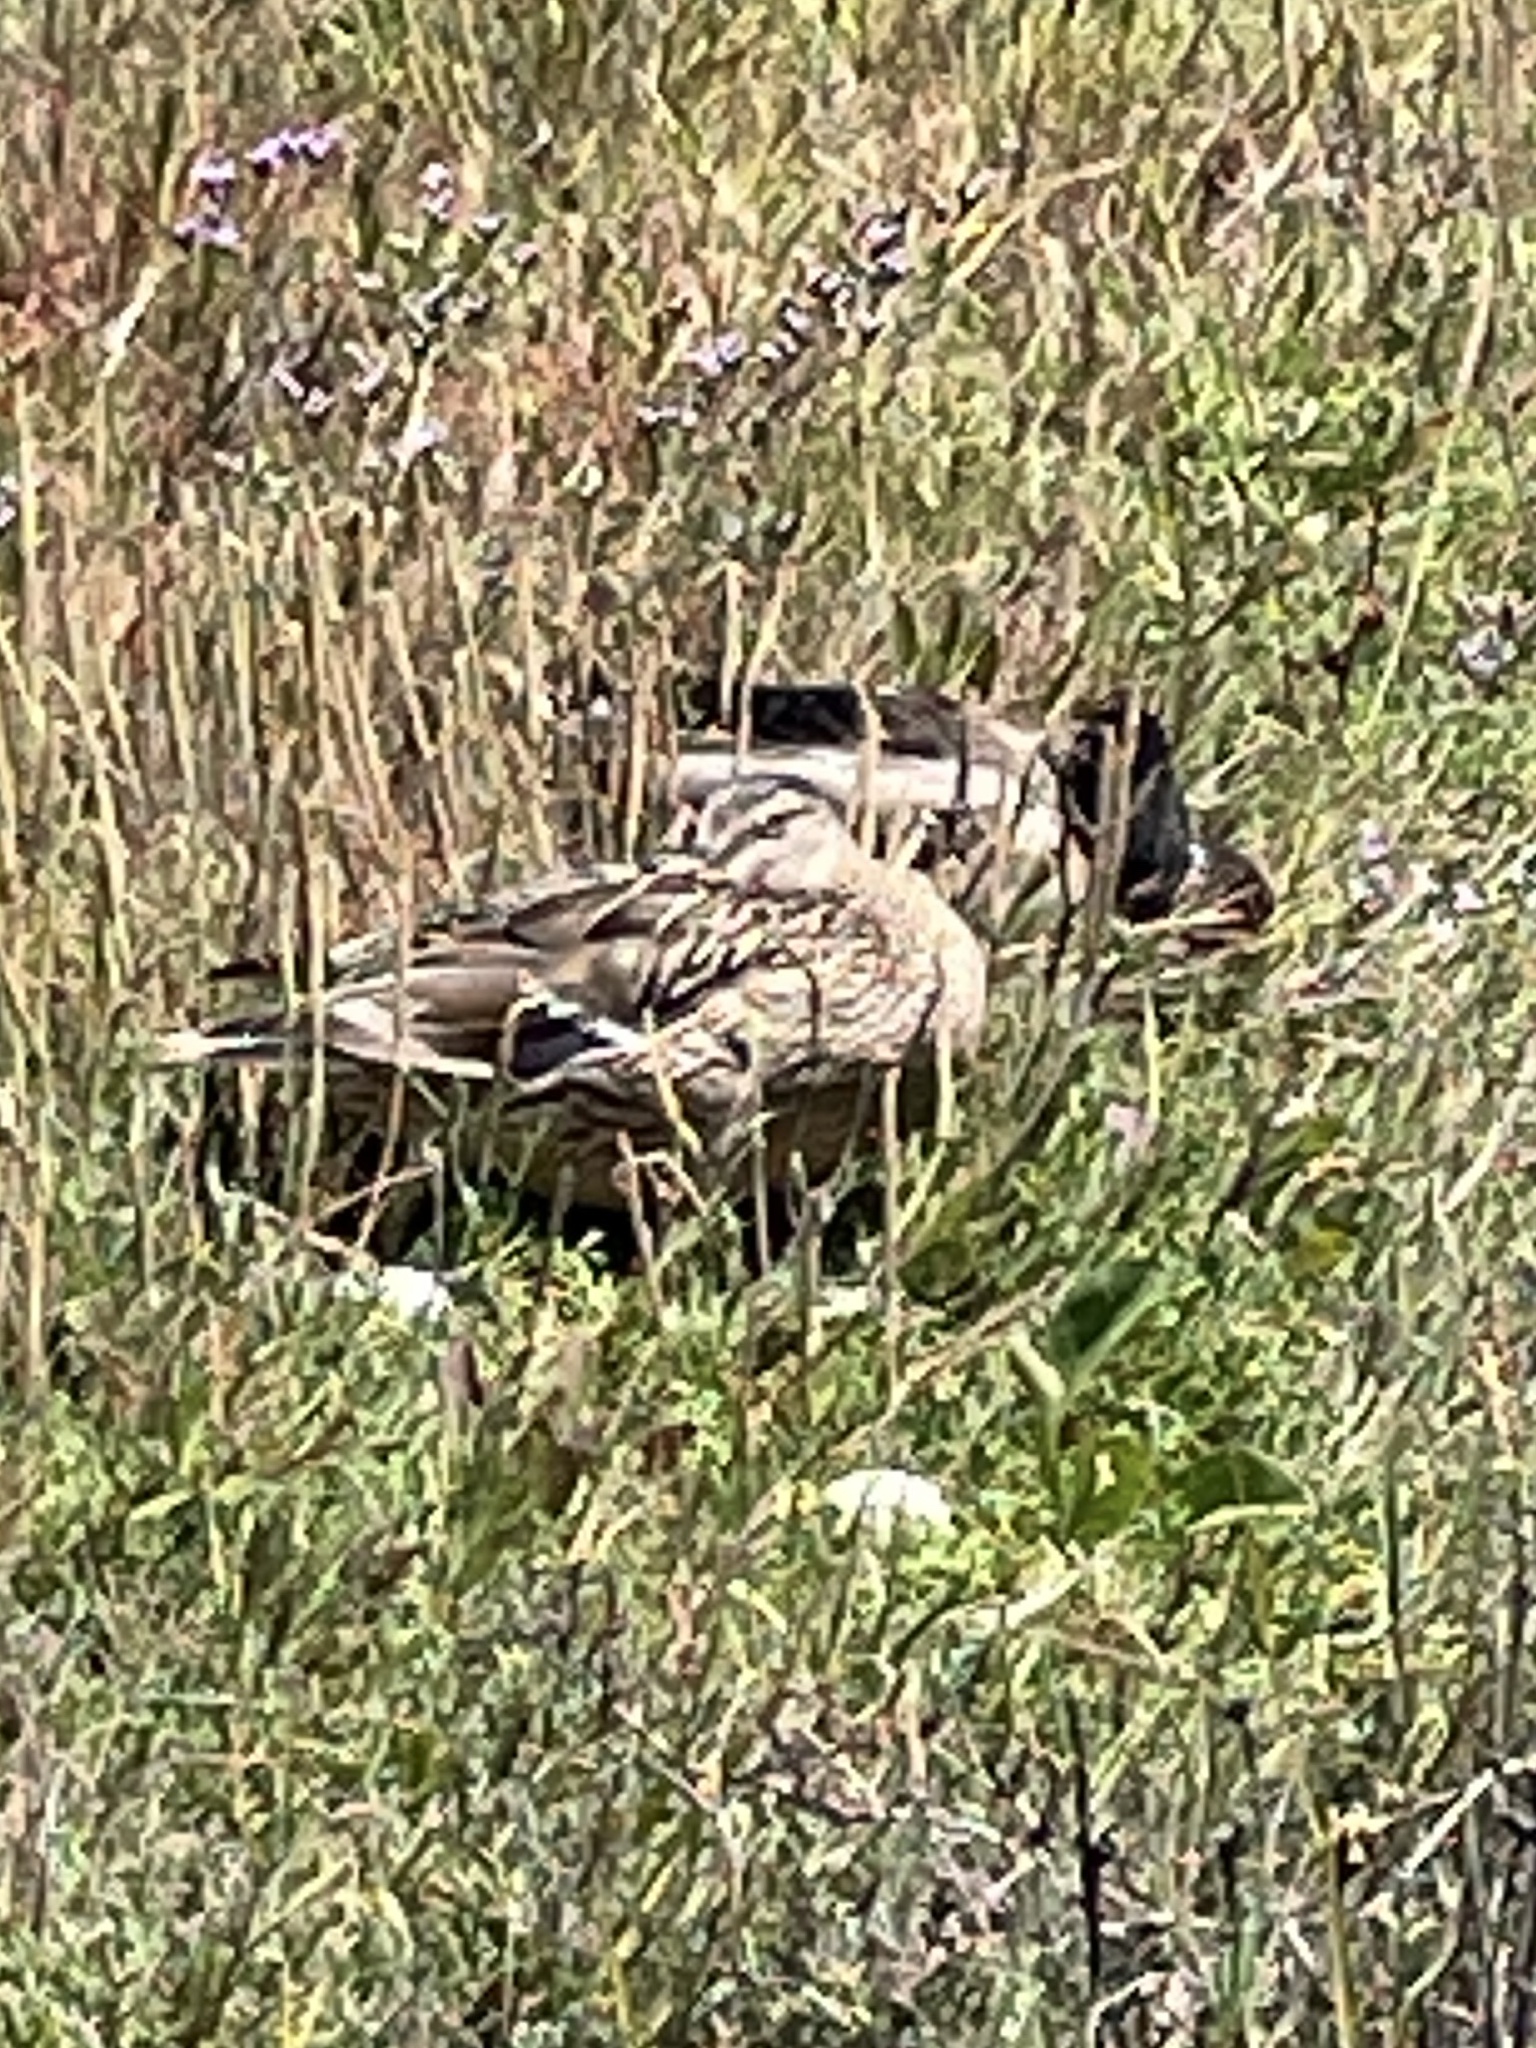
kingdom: Animalia
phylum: Chordata
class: Aves
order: Anseriformes
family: Anatidae
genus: Anas
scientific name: Anas platyrhynchos
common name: Mallard
